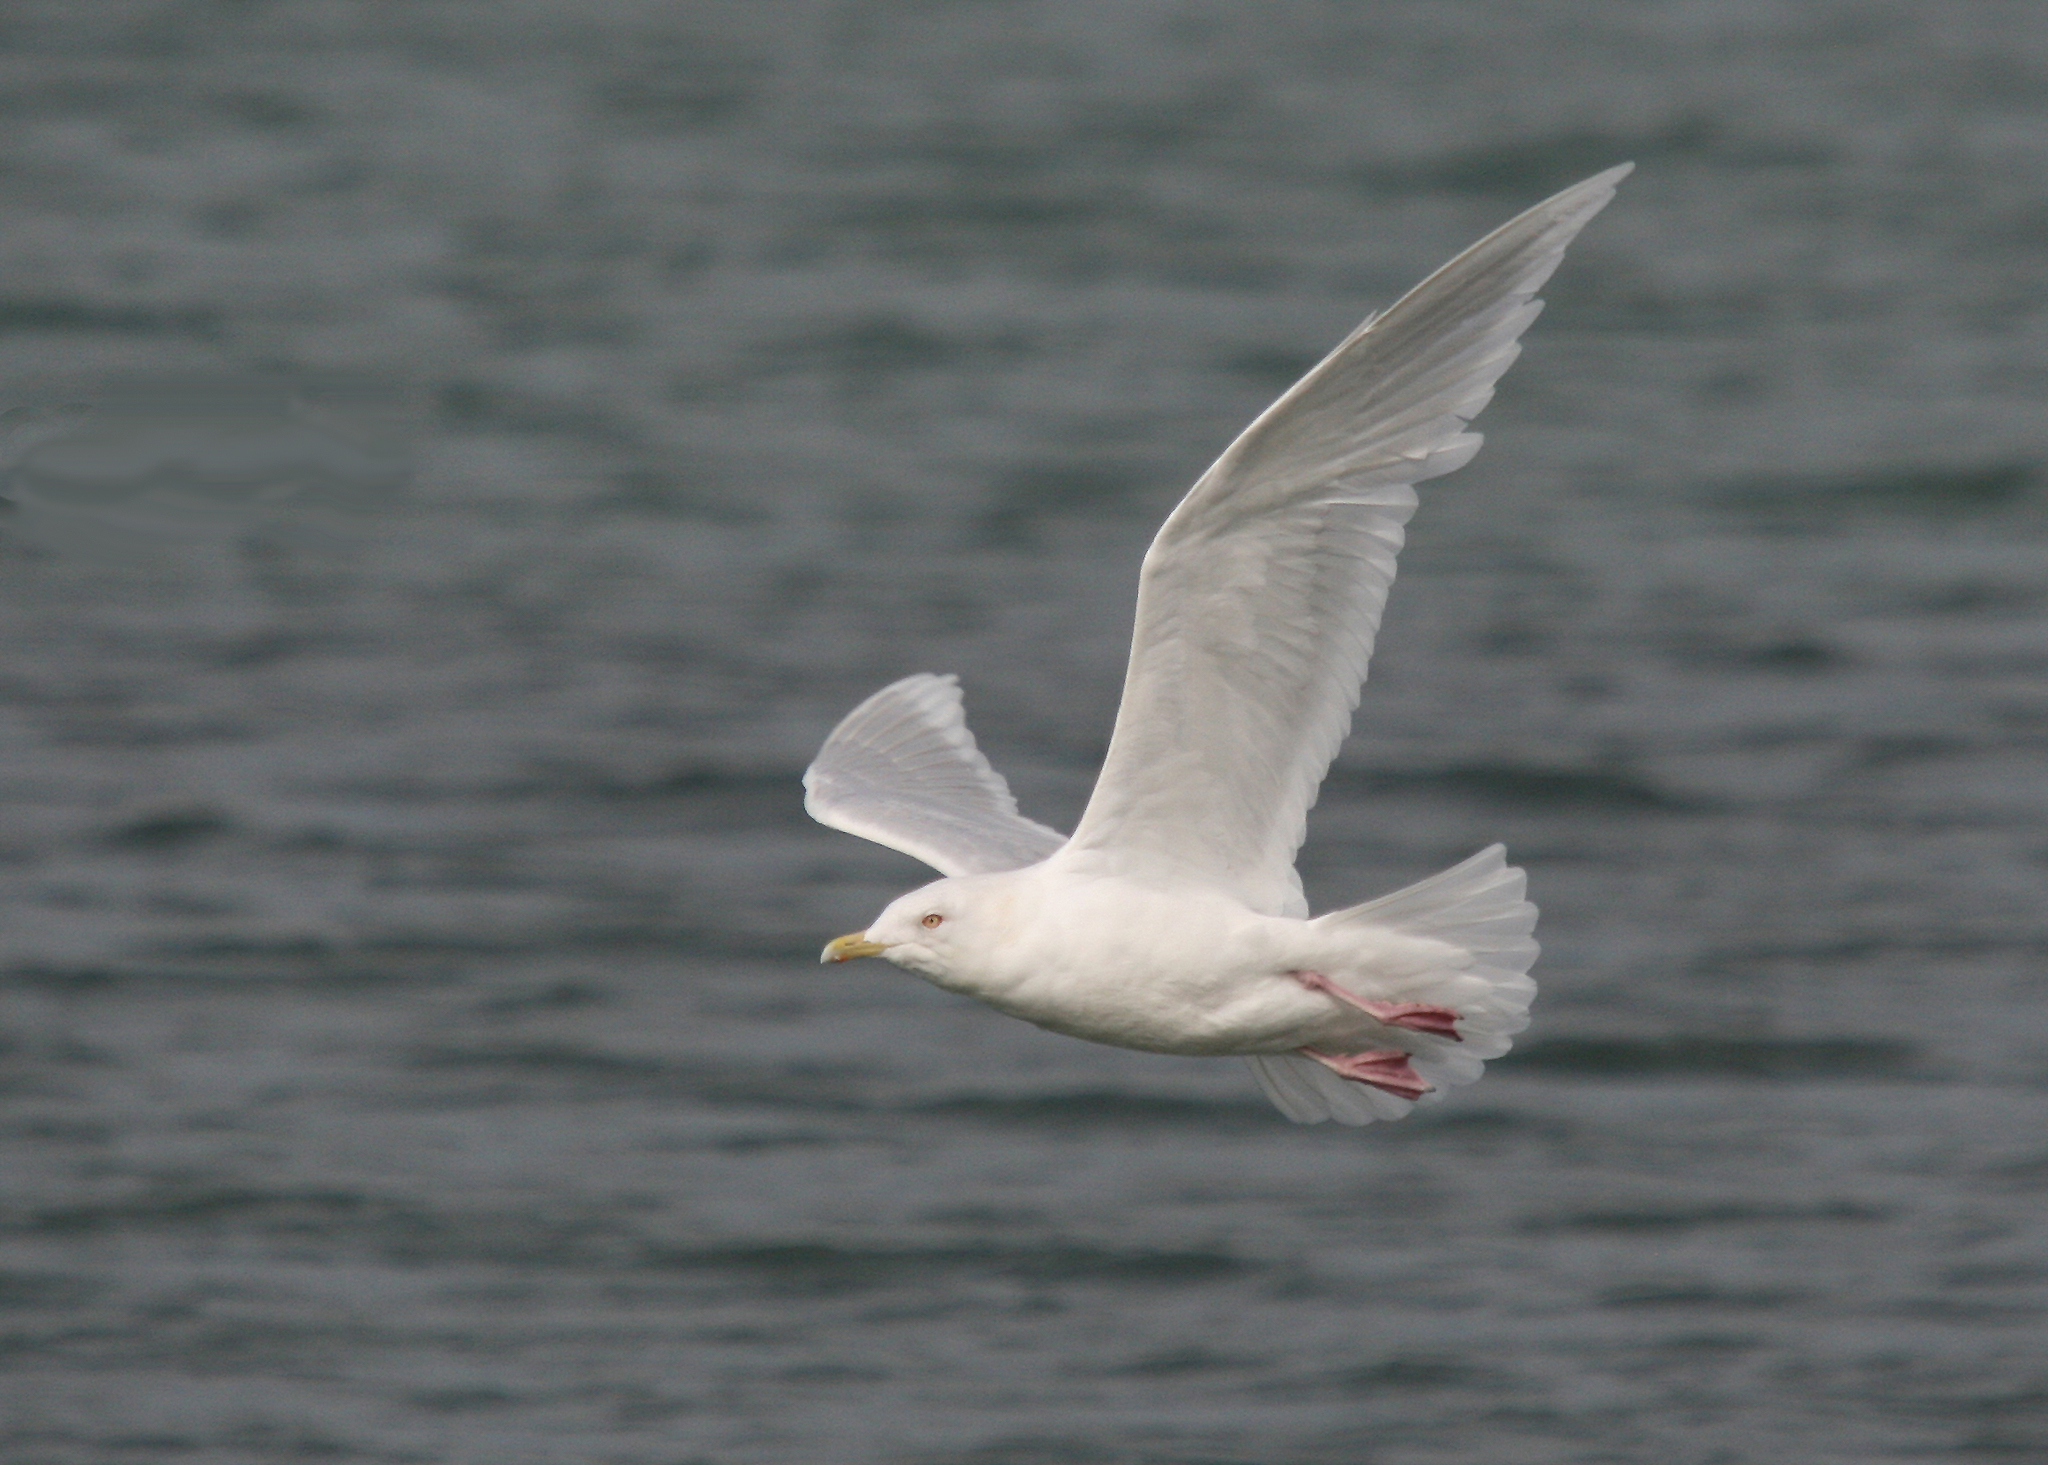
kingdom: Animalia
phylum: Chordata
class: Aves
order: Charadriiformes
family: Laridae
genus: Larus
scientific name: Larus glaucoides
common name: Iceland gull
